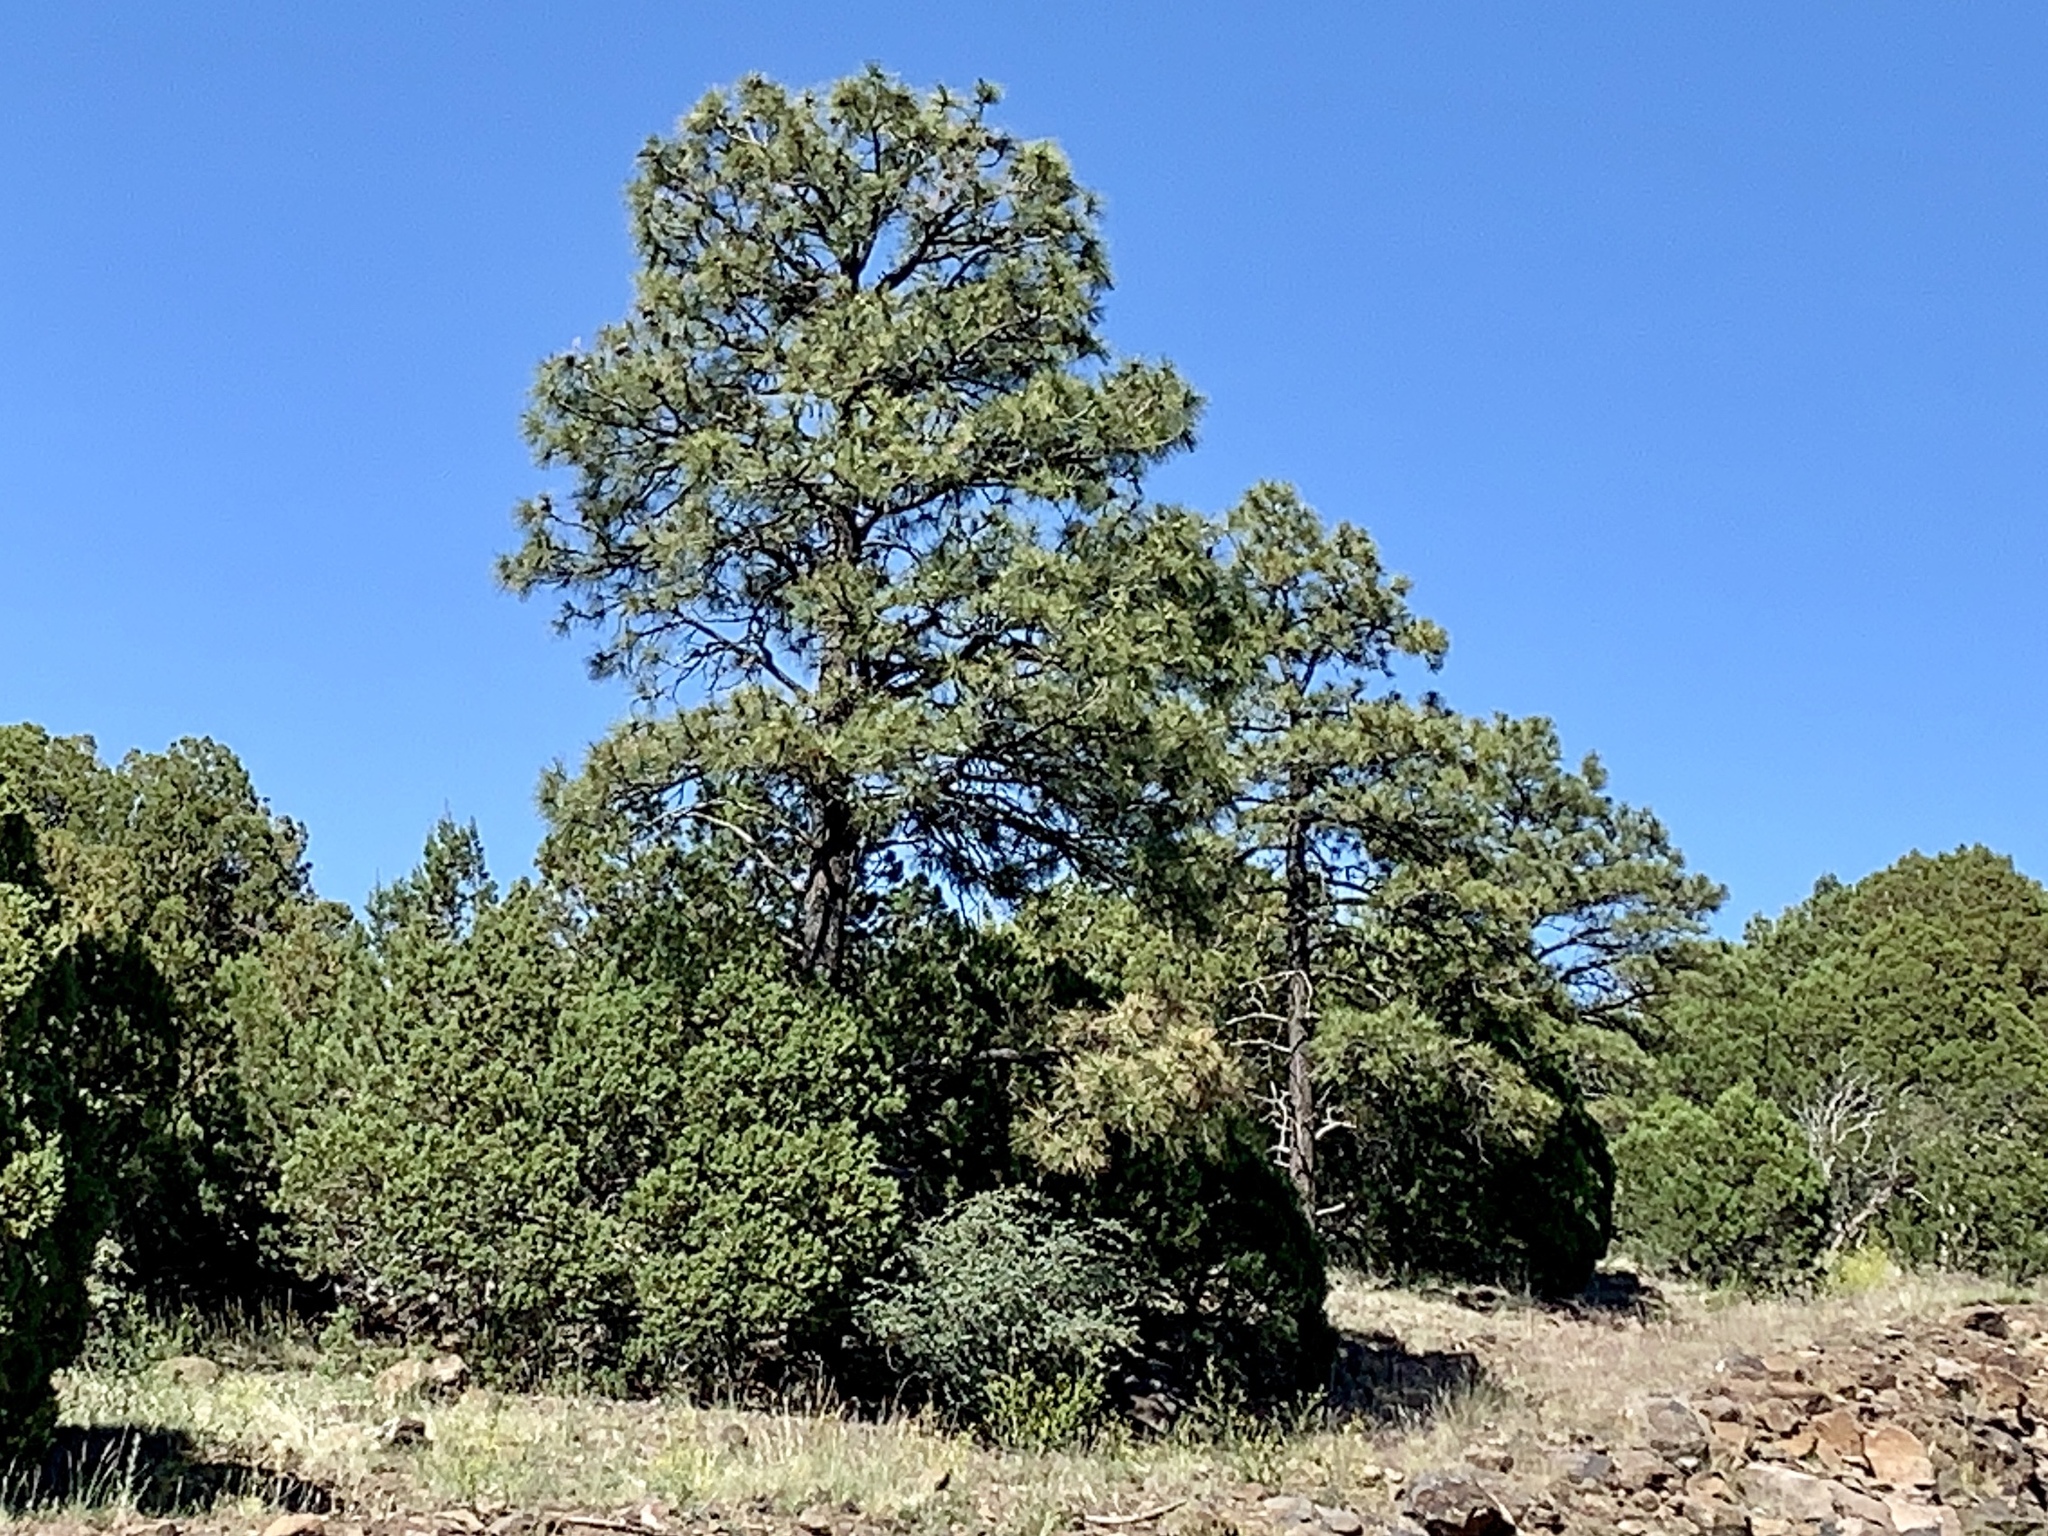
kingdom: Plantae
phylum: Tracheophyta
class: Pinopsida
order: Pinales
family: Pinaceae
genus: Pinus
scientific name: Pinus ponderosa
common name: Western yellow-pine
